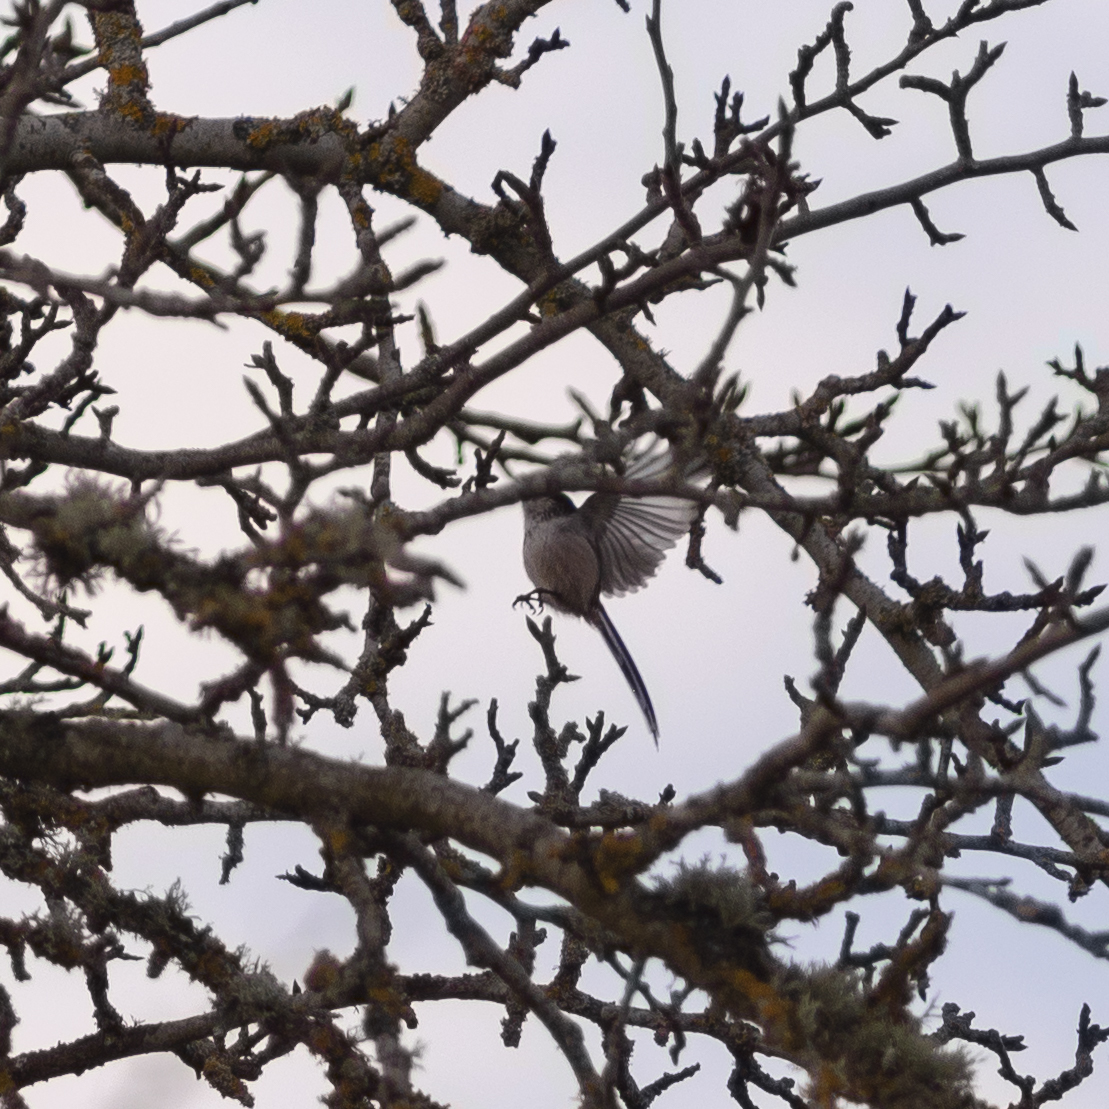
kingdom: Animalia
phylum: Chordata
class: Aves
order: Passeriformes
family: Aegithalidae
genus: Aegithalos
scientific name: Aegithalos caudatus
